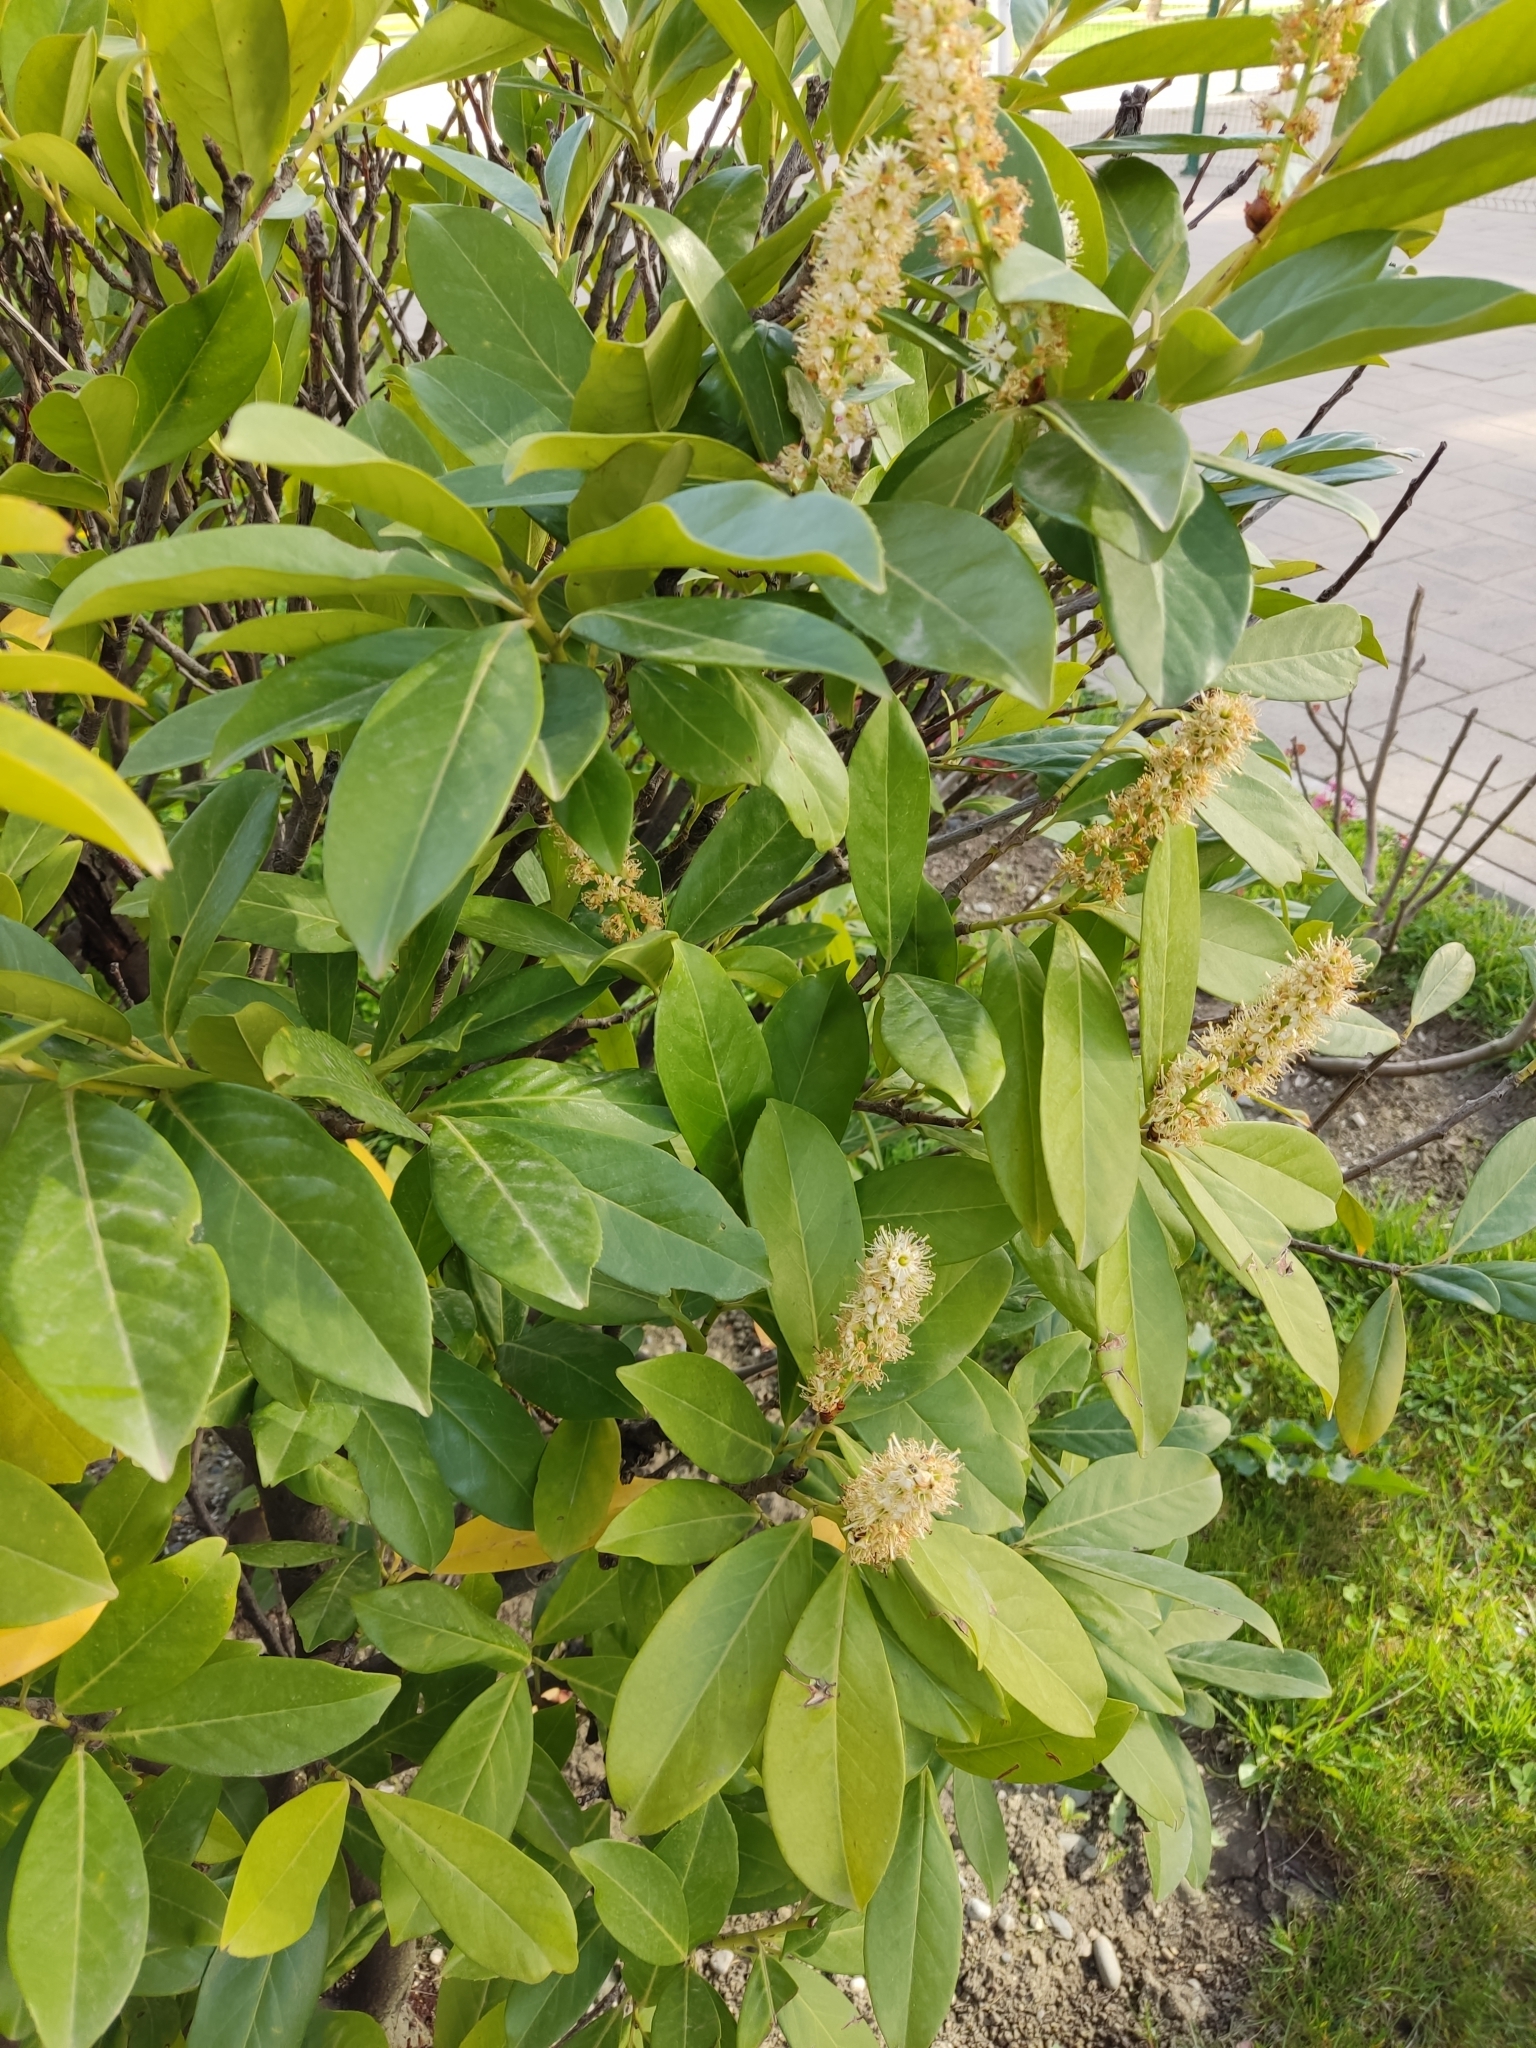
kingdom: Plantae
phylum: Tracheophyta
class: Magnoliopsida
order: Rosales
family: Rosaceae
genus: Prunus
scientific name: Prunus laurocerasus
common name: Cherry laurel
